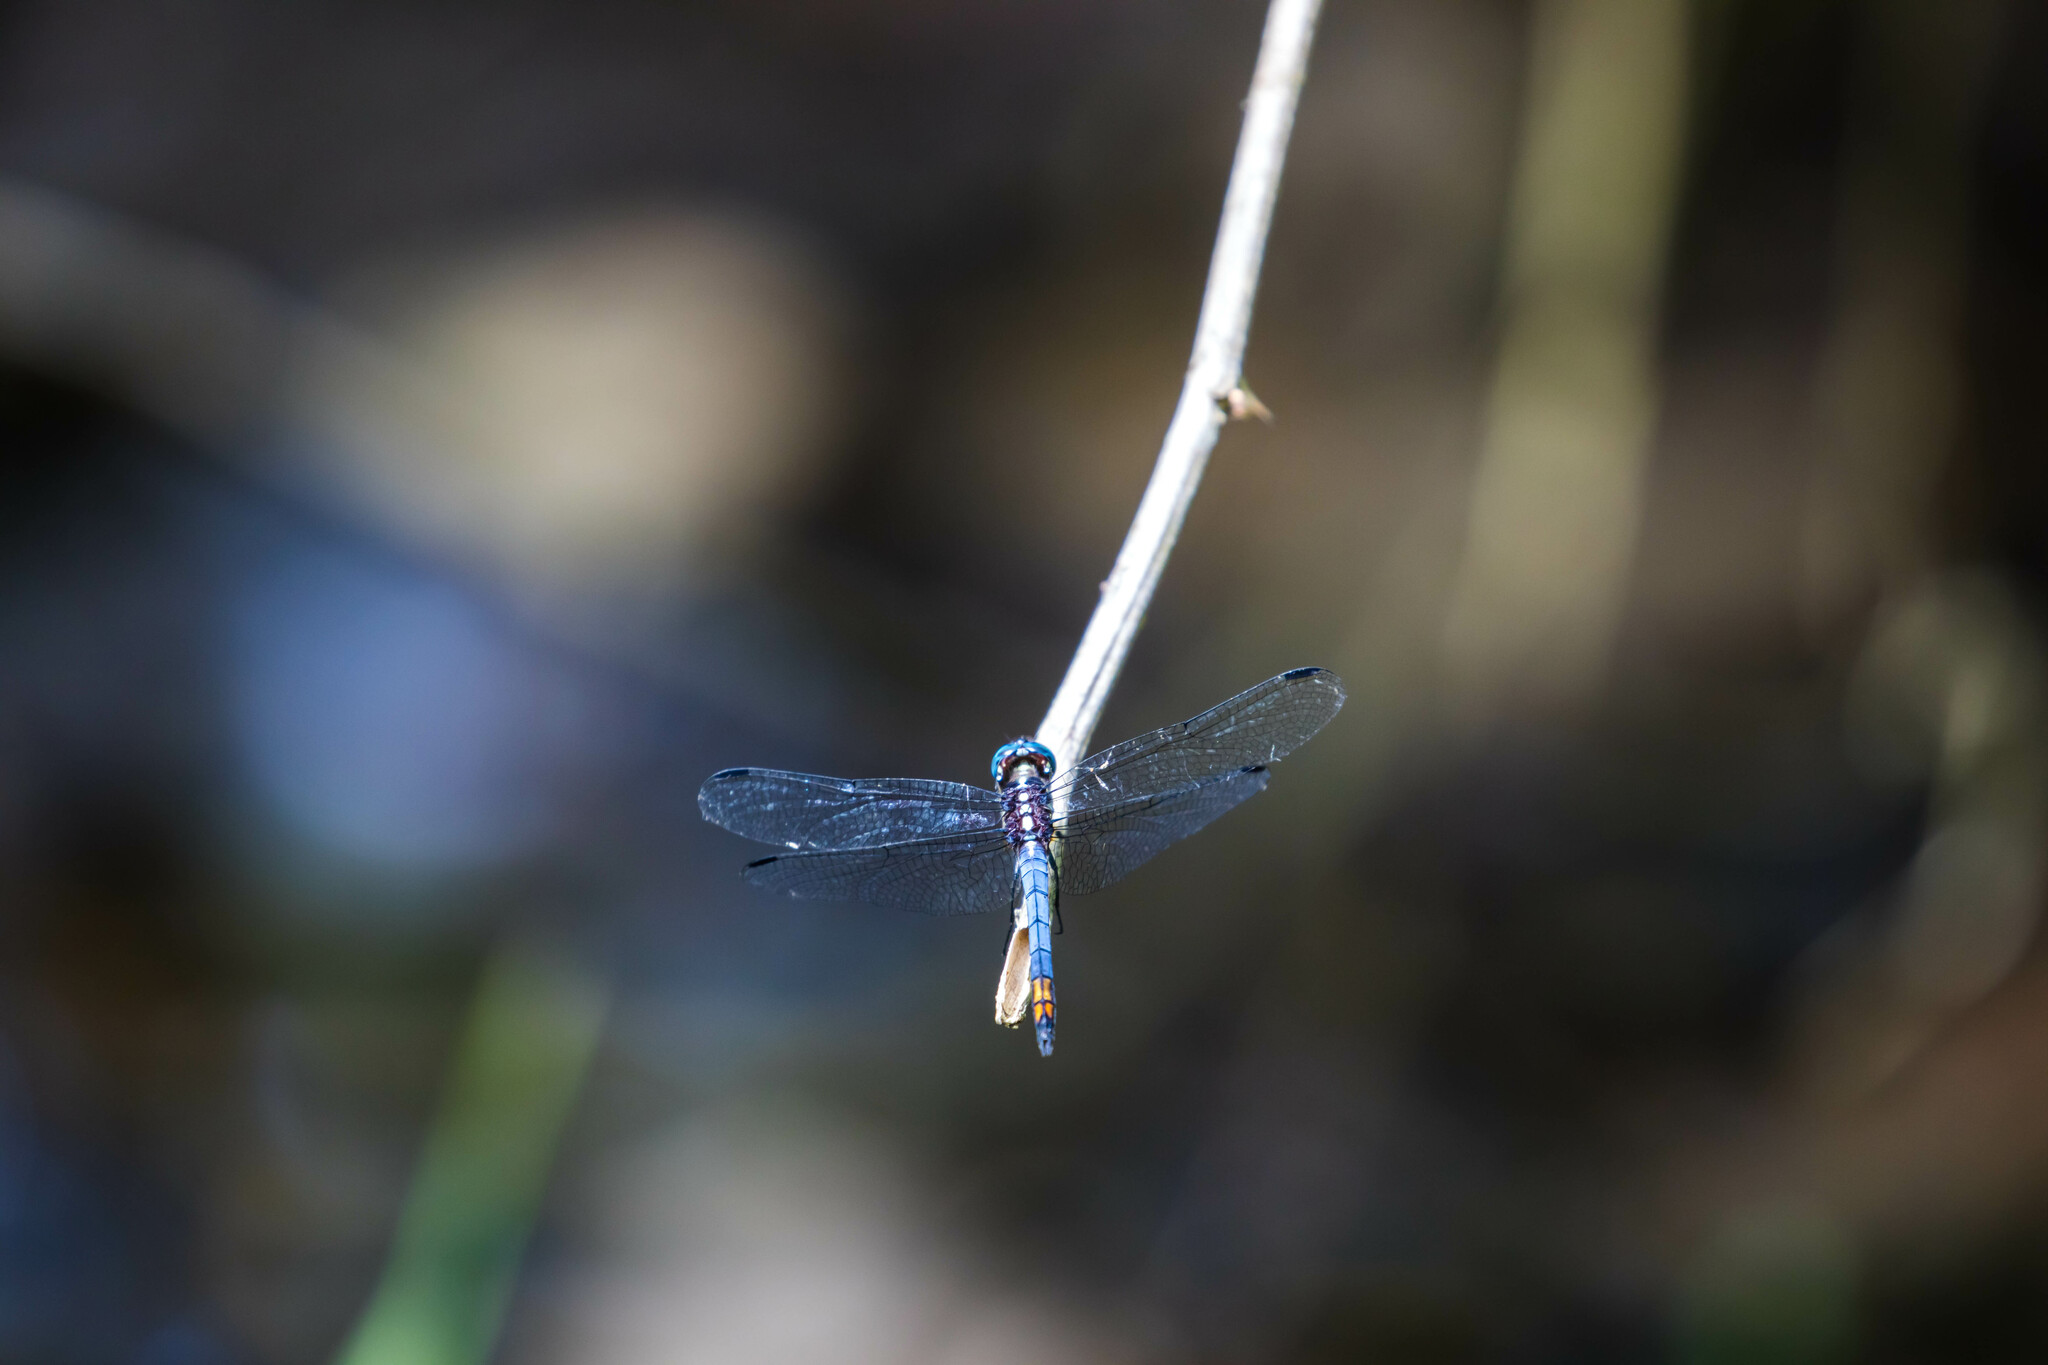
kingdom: Animalia
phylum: Arthropoda
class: Insecta
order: Odonata
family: Libellulidae
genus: Cannaphila
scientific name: Cannaphila vibex
